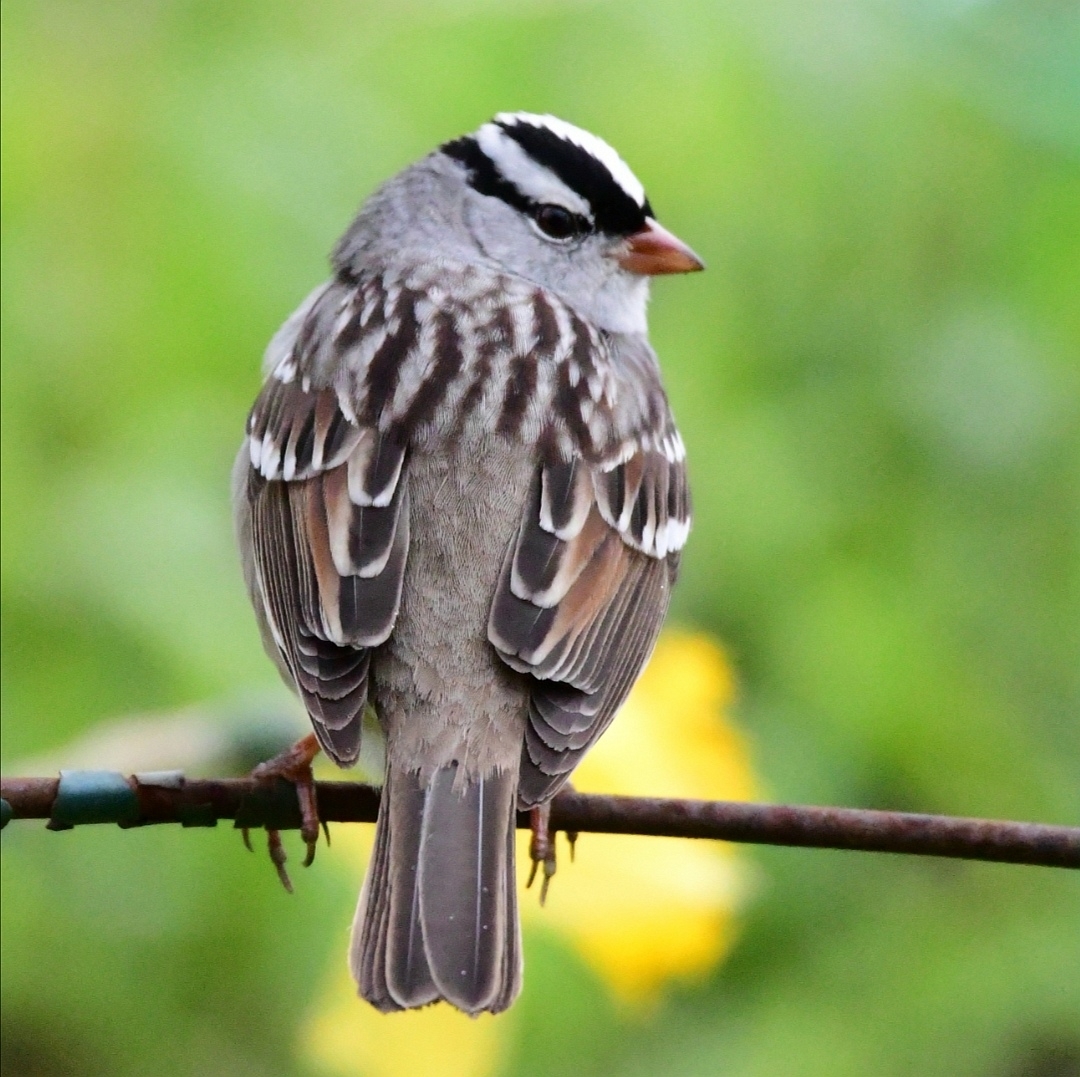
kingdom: Animalia
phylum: Chordata
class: Aves
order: Passeriformes
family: Passerellidae
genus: Zonotrichia
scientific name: Zonotrichia leucophrys
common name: White-crowned sparrow
